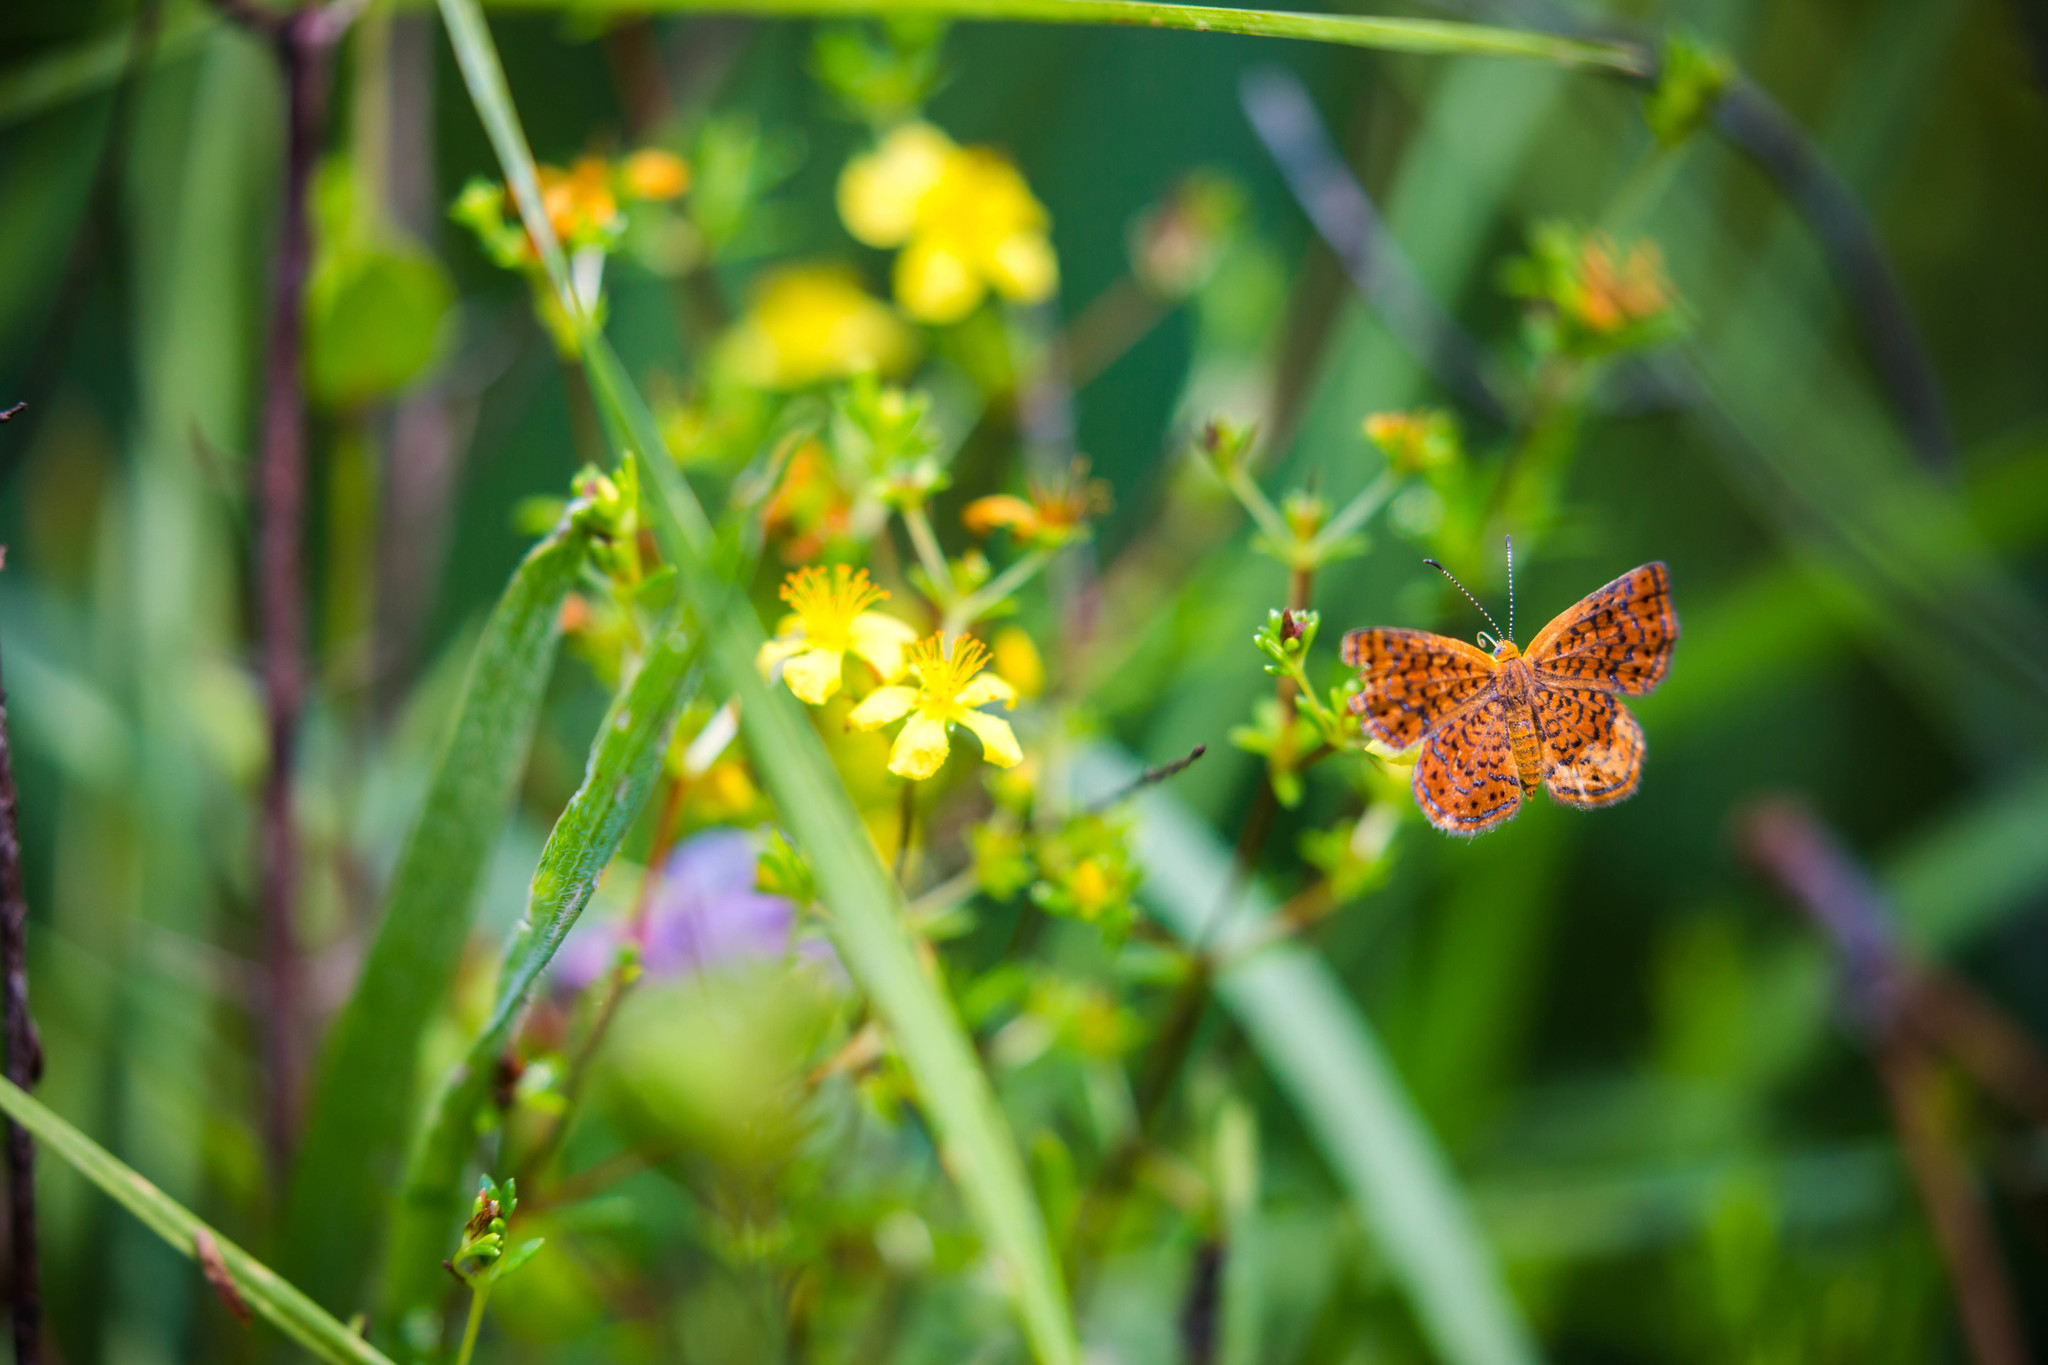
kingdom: Animalia
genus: Calephelis
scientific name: Calephelis virginiensis
